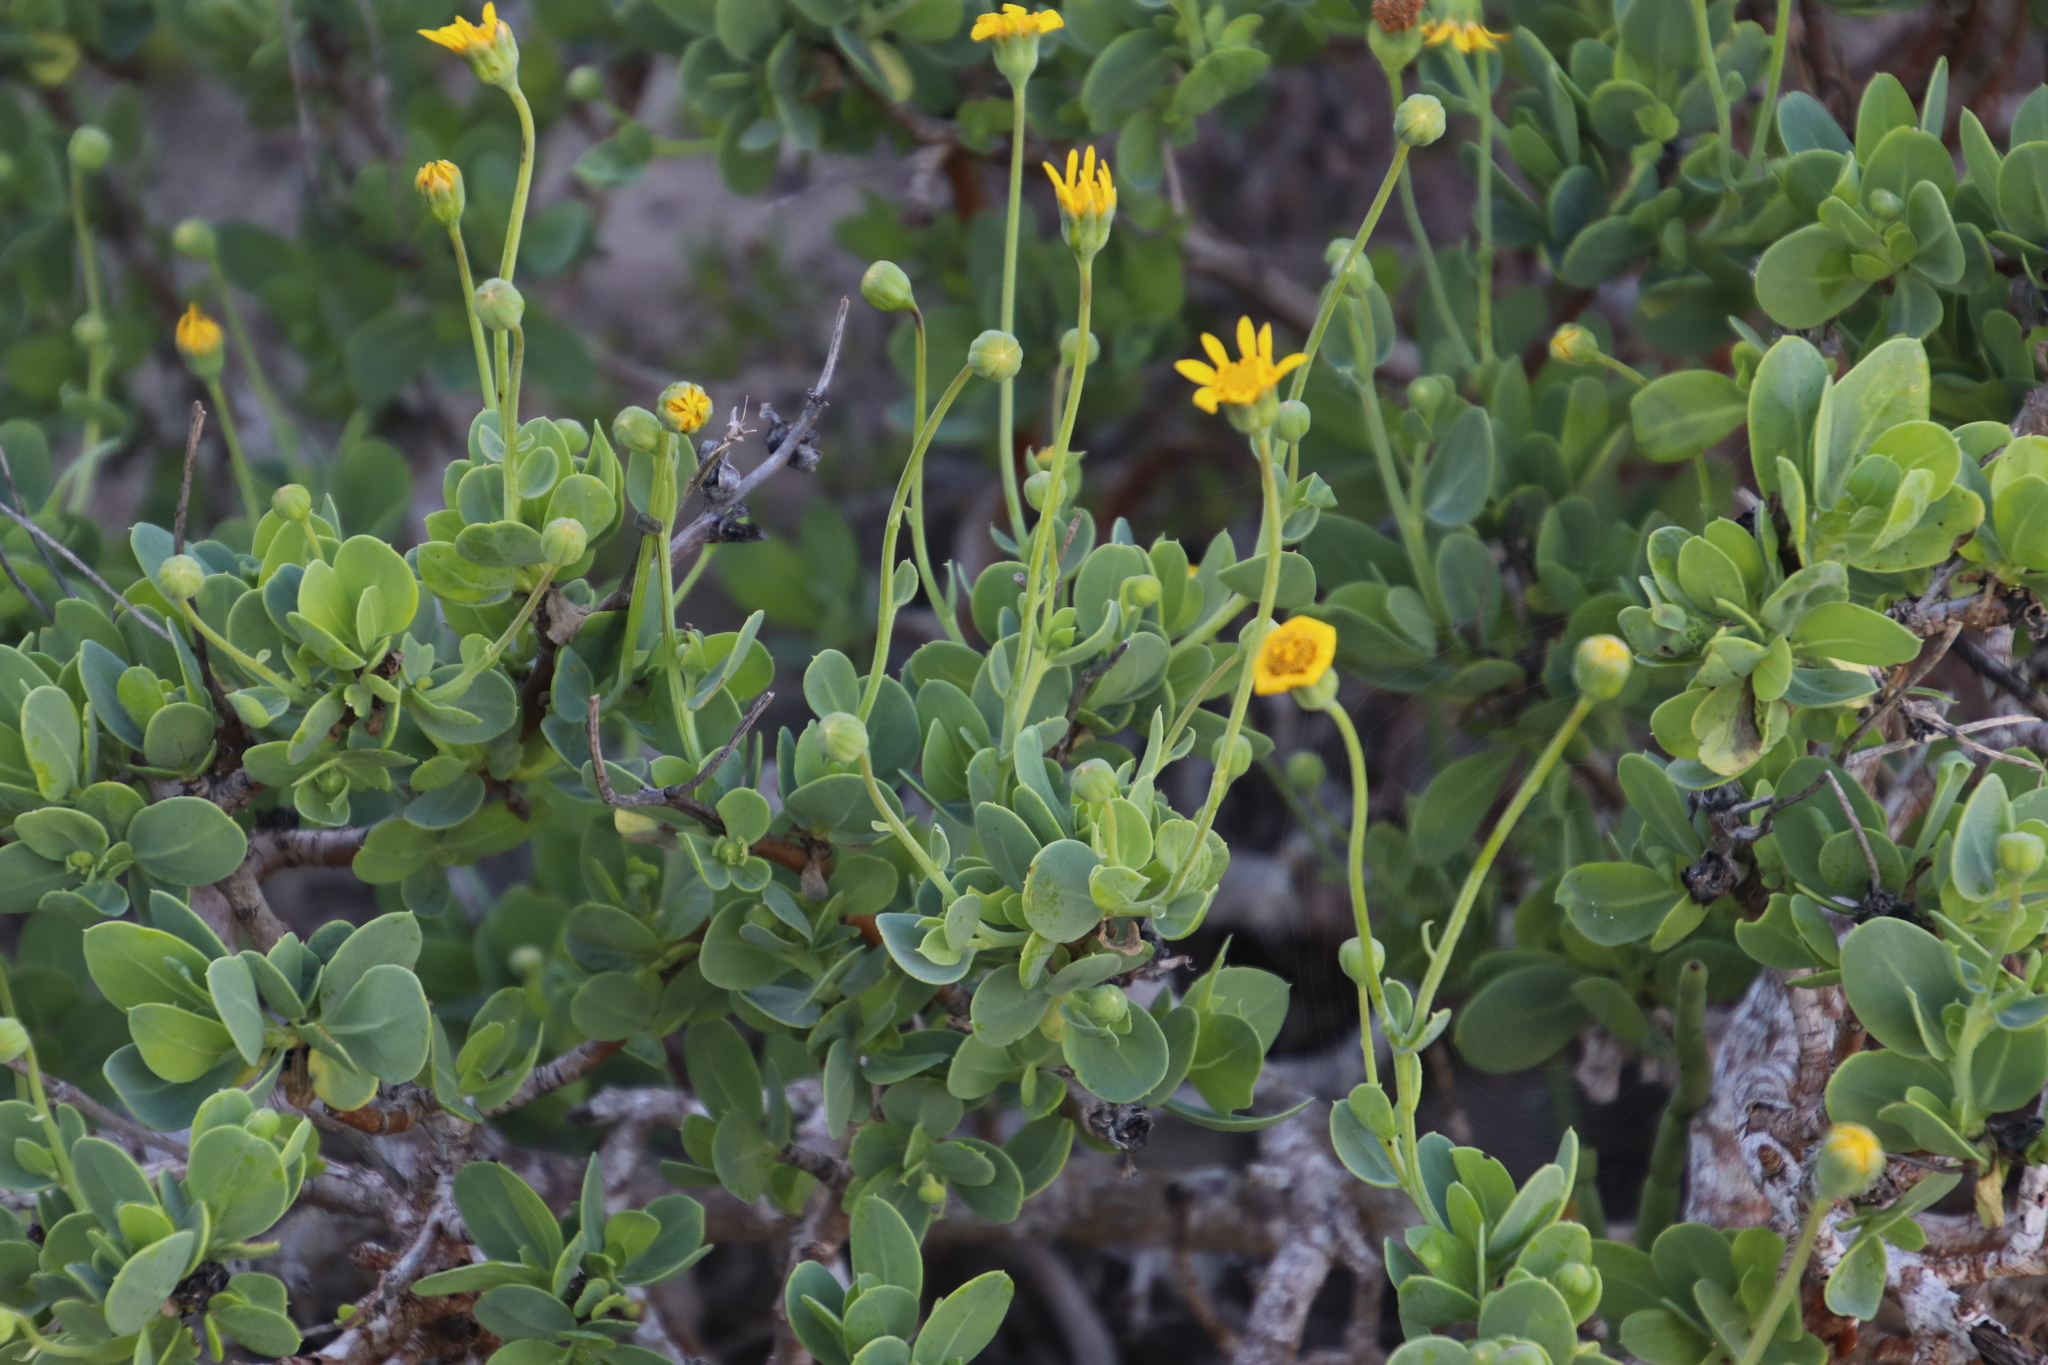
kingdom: Plantae
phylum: Tracheophyta
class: Magnoliopsida
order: Asterales
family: Asteraceae
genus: Othonna
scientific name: Othonna coronopifolia
